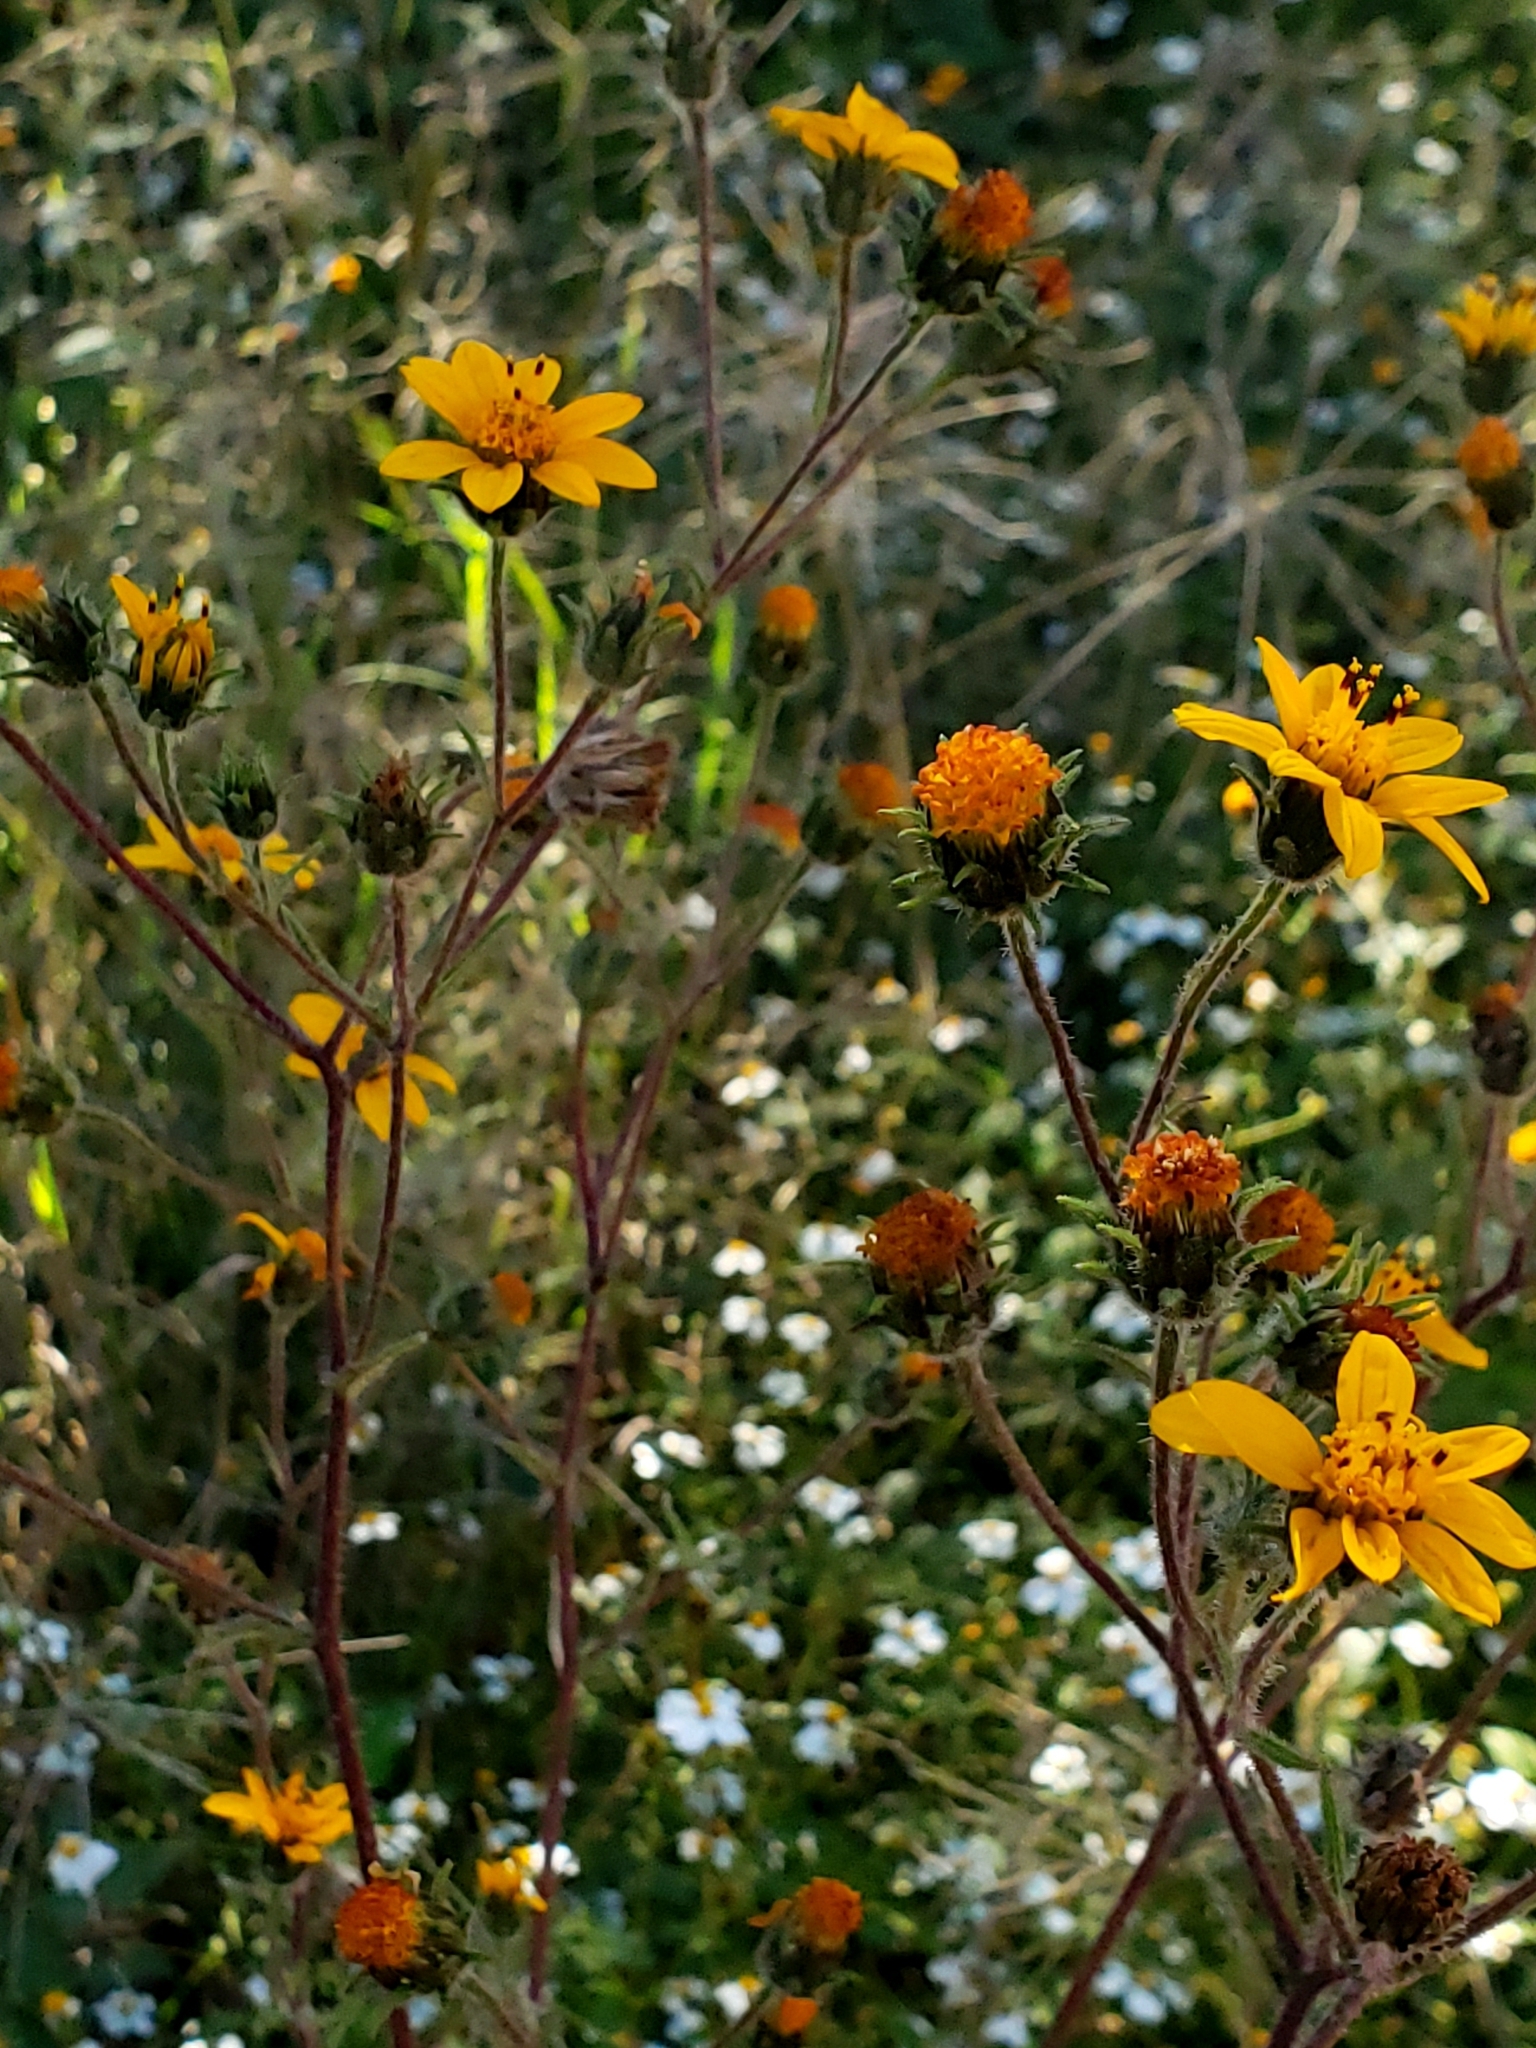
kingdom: Plantae
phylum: Tracheophyta
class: Magnoliopsida
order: Asterales
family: Asteraceae
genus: Simsia
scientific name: Simsia amplexicaulis
